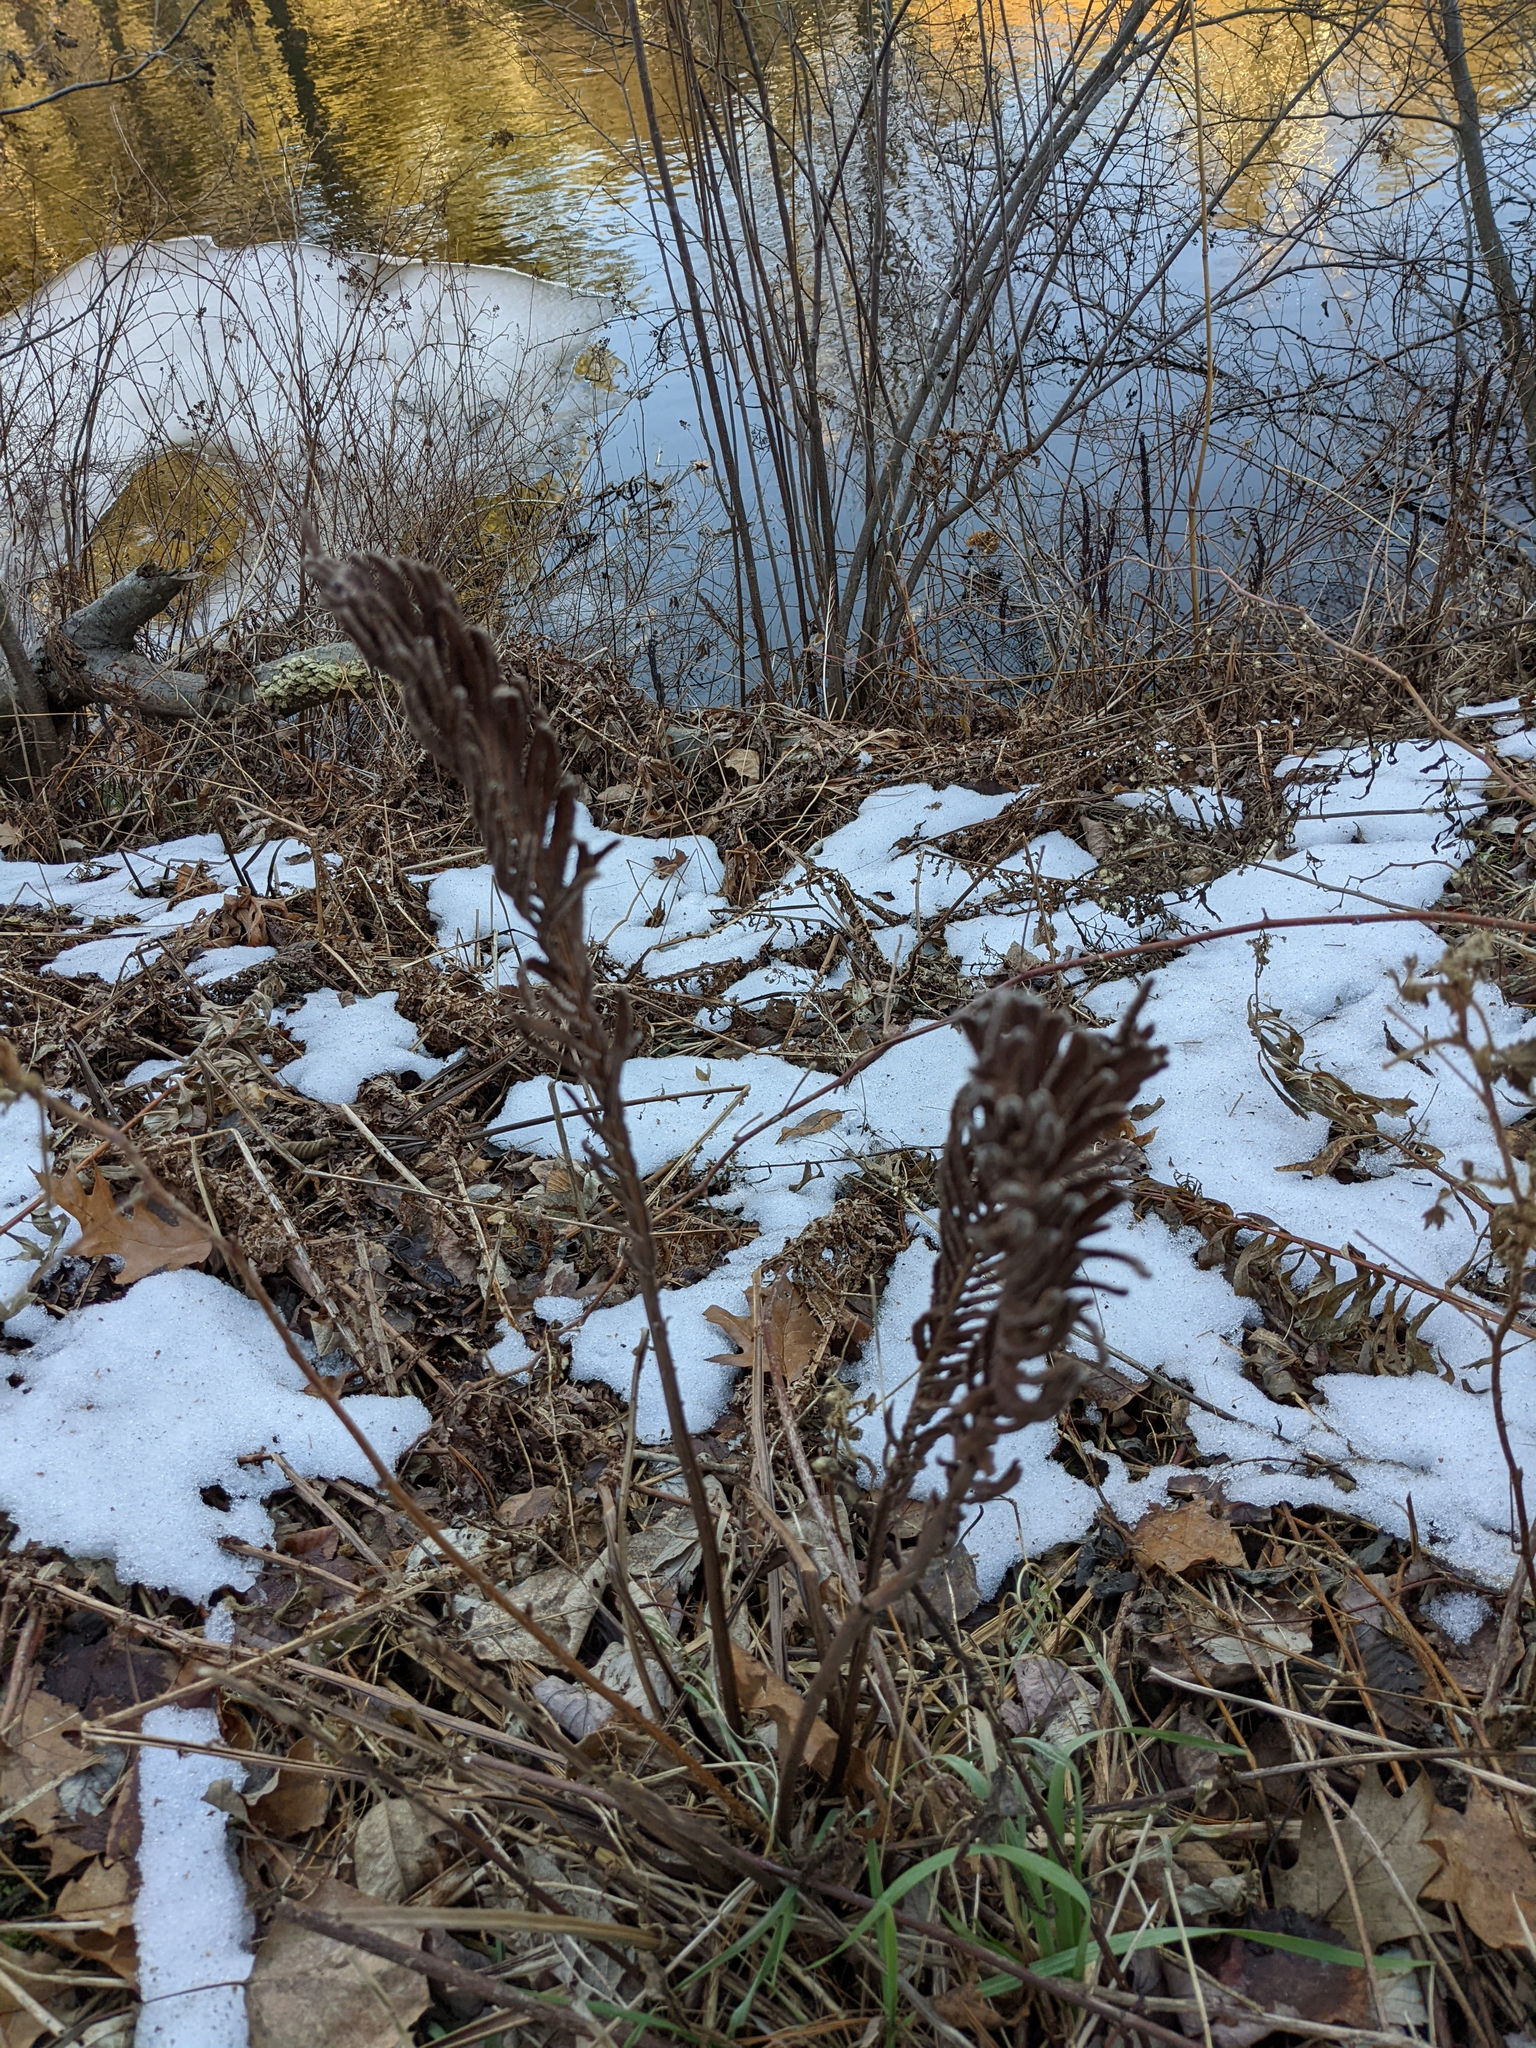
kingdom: Plantae
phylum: Tracheophyta
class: Polypodiopsida
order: Polypodiales
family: Onocleaceae
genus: Matteuccia
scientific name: Matteuccia struthiopteris
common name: Ostrich fern
